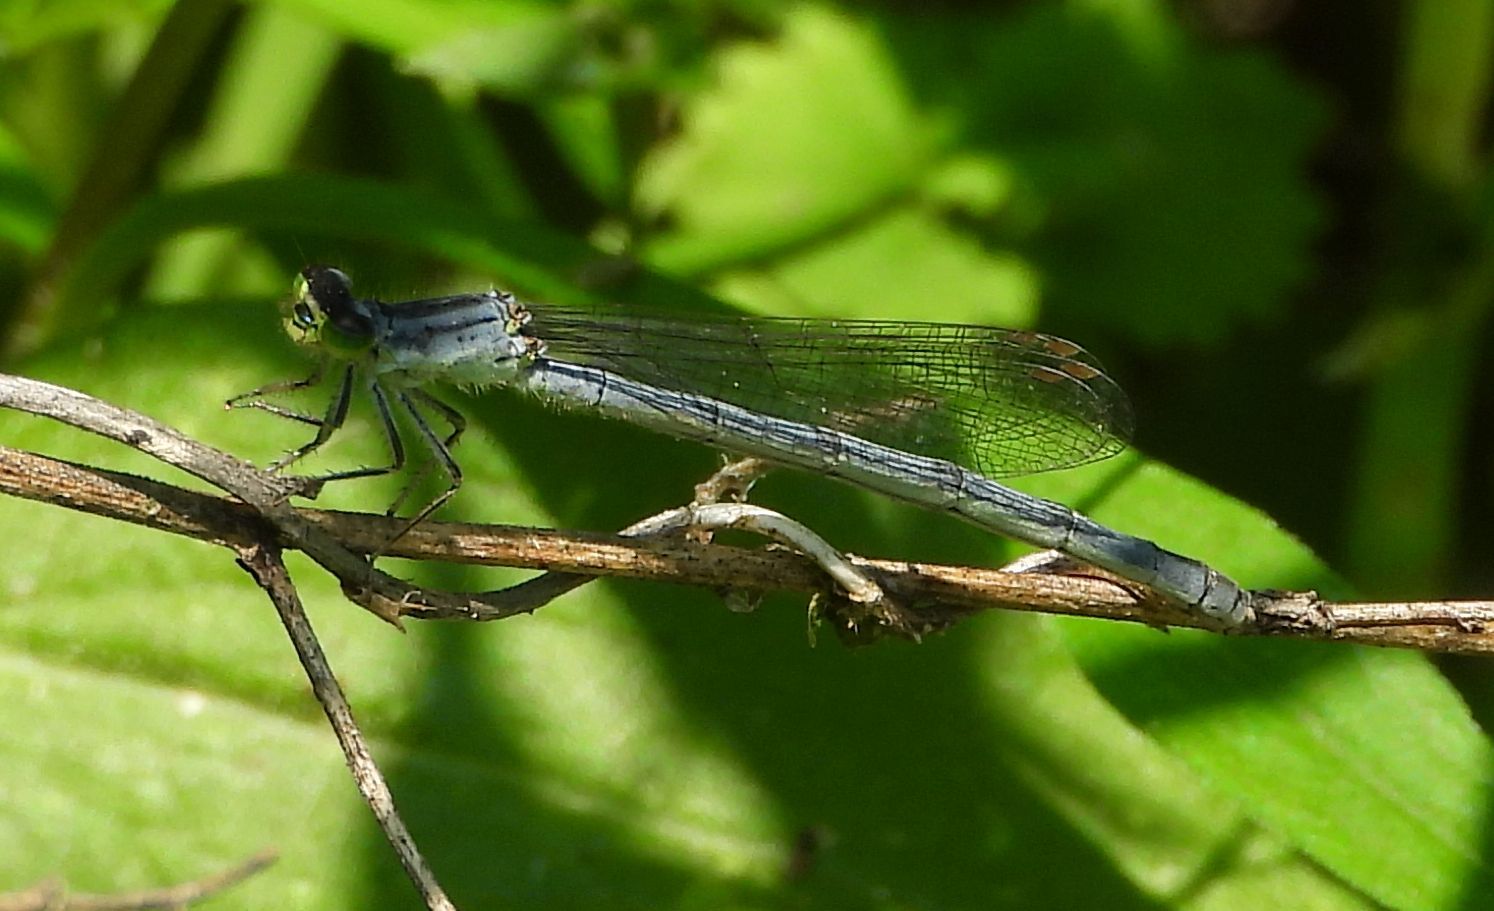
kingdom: Animalia
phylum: Arthropoda
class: Insecta
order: Odonata
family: Coenagrionidae
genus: Ischnura
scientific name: Ischnura verticalis
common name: Eastern forktail
